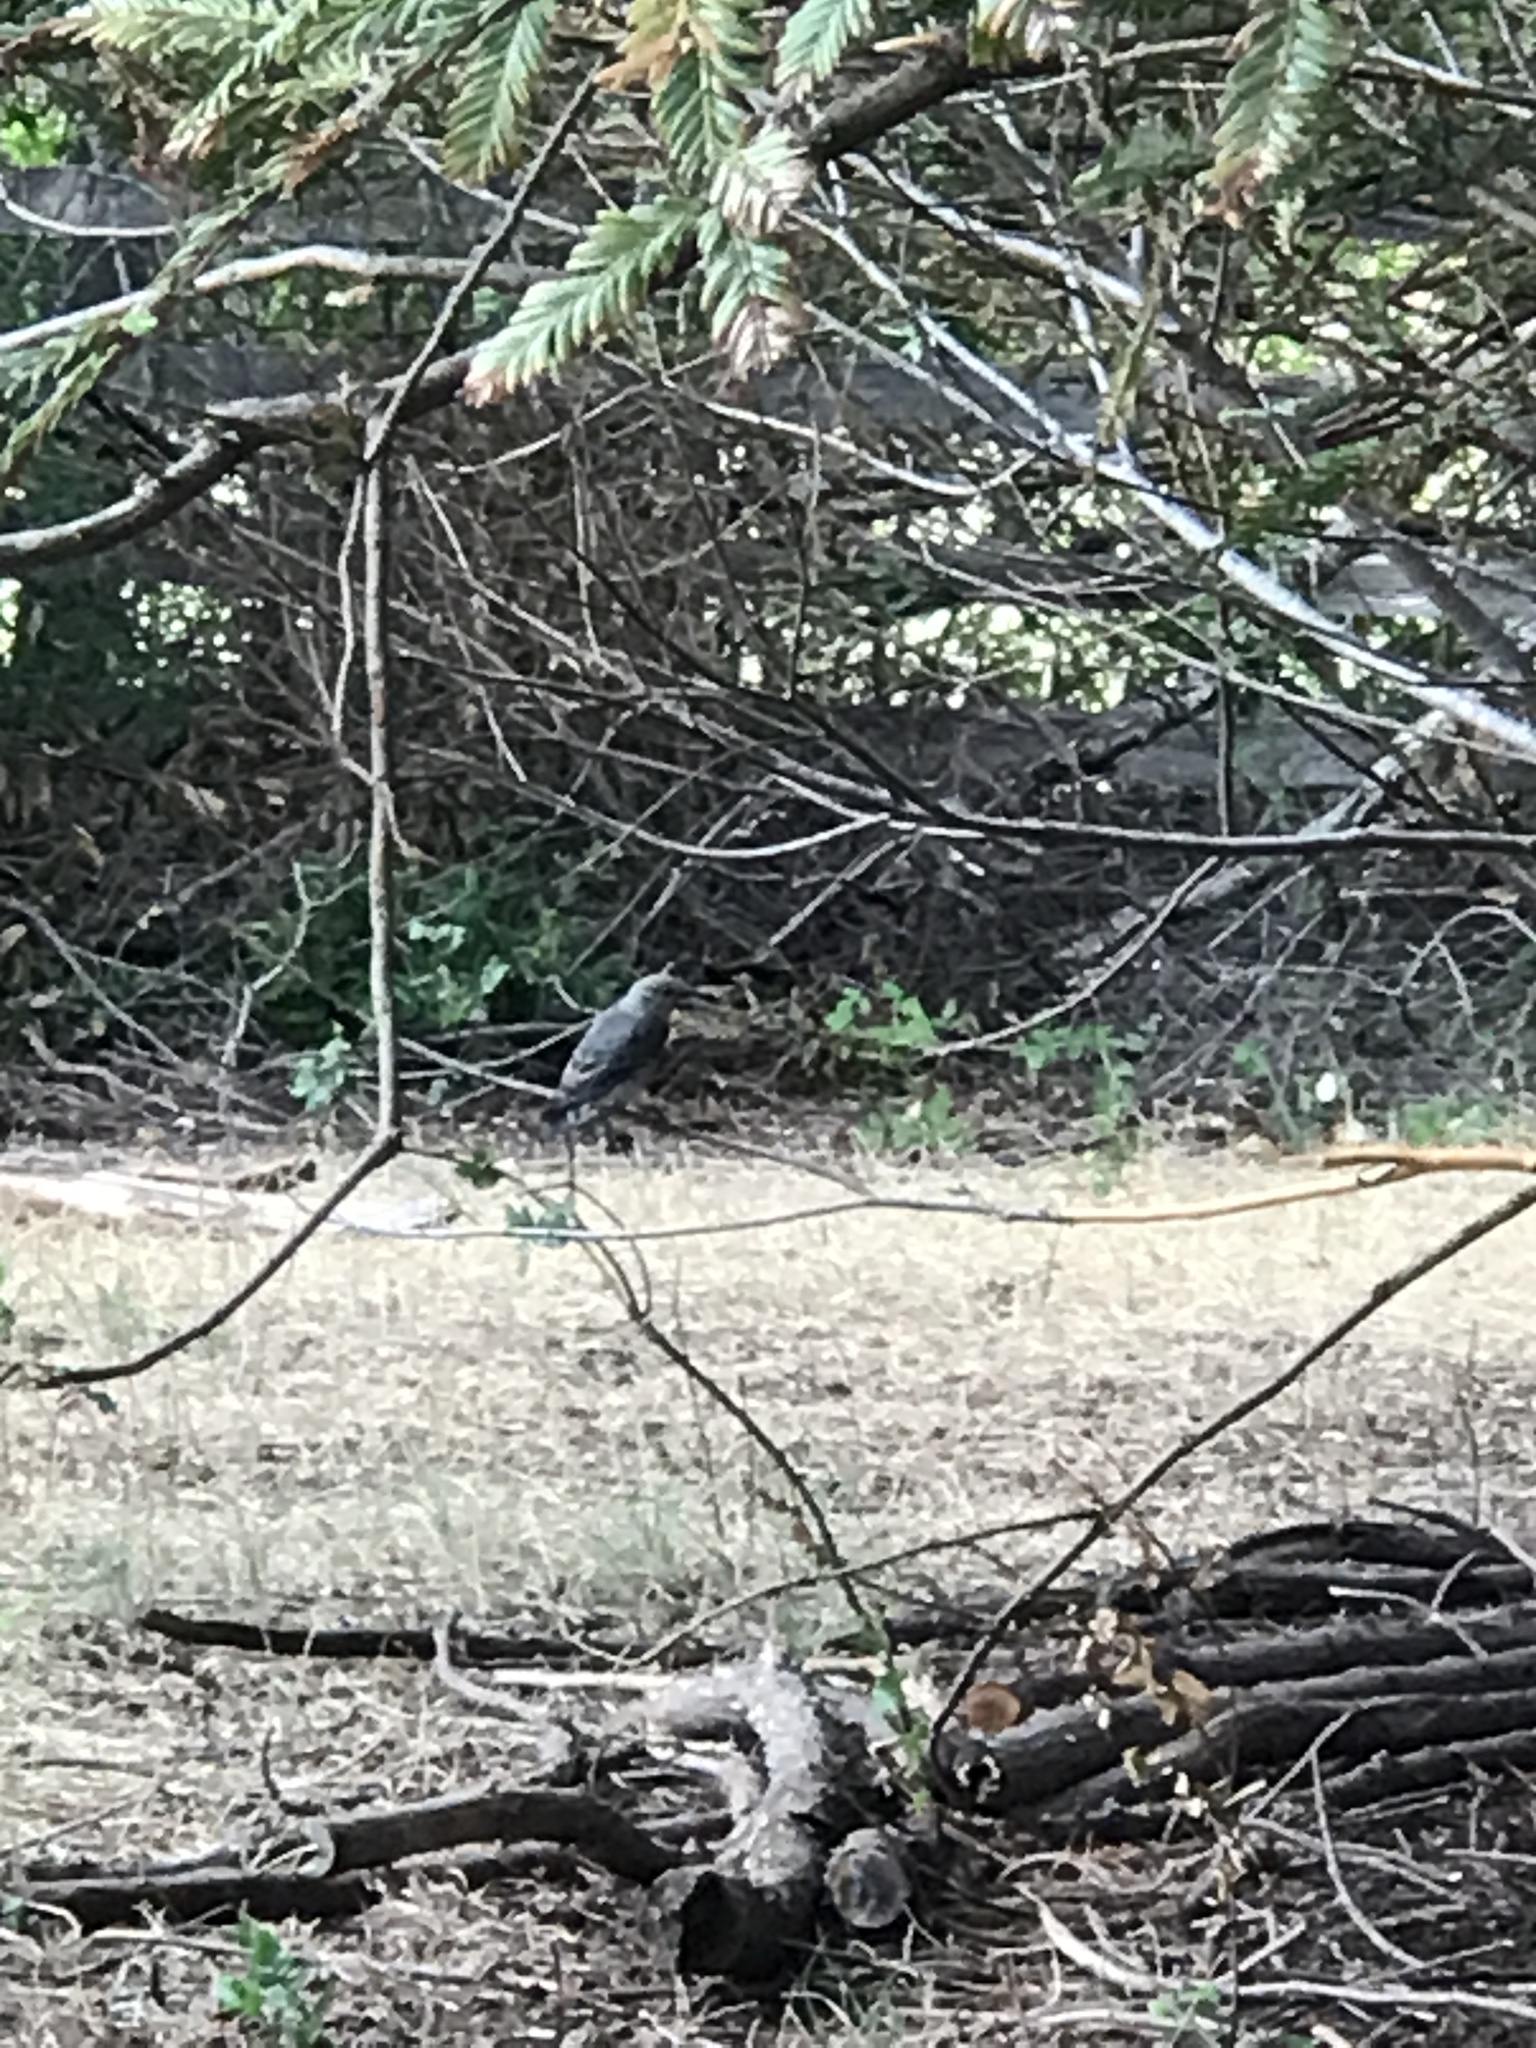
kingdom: Animalia
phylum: Chordata
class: Aves
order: Passeriformes
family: Turdidae
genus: Sialia
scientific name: Sialia mexicana
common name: Western bluebird
